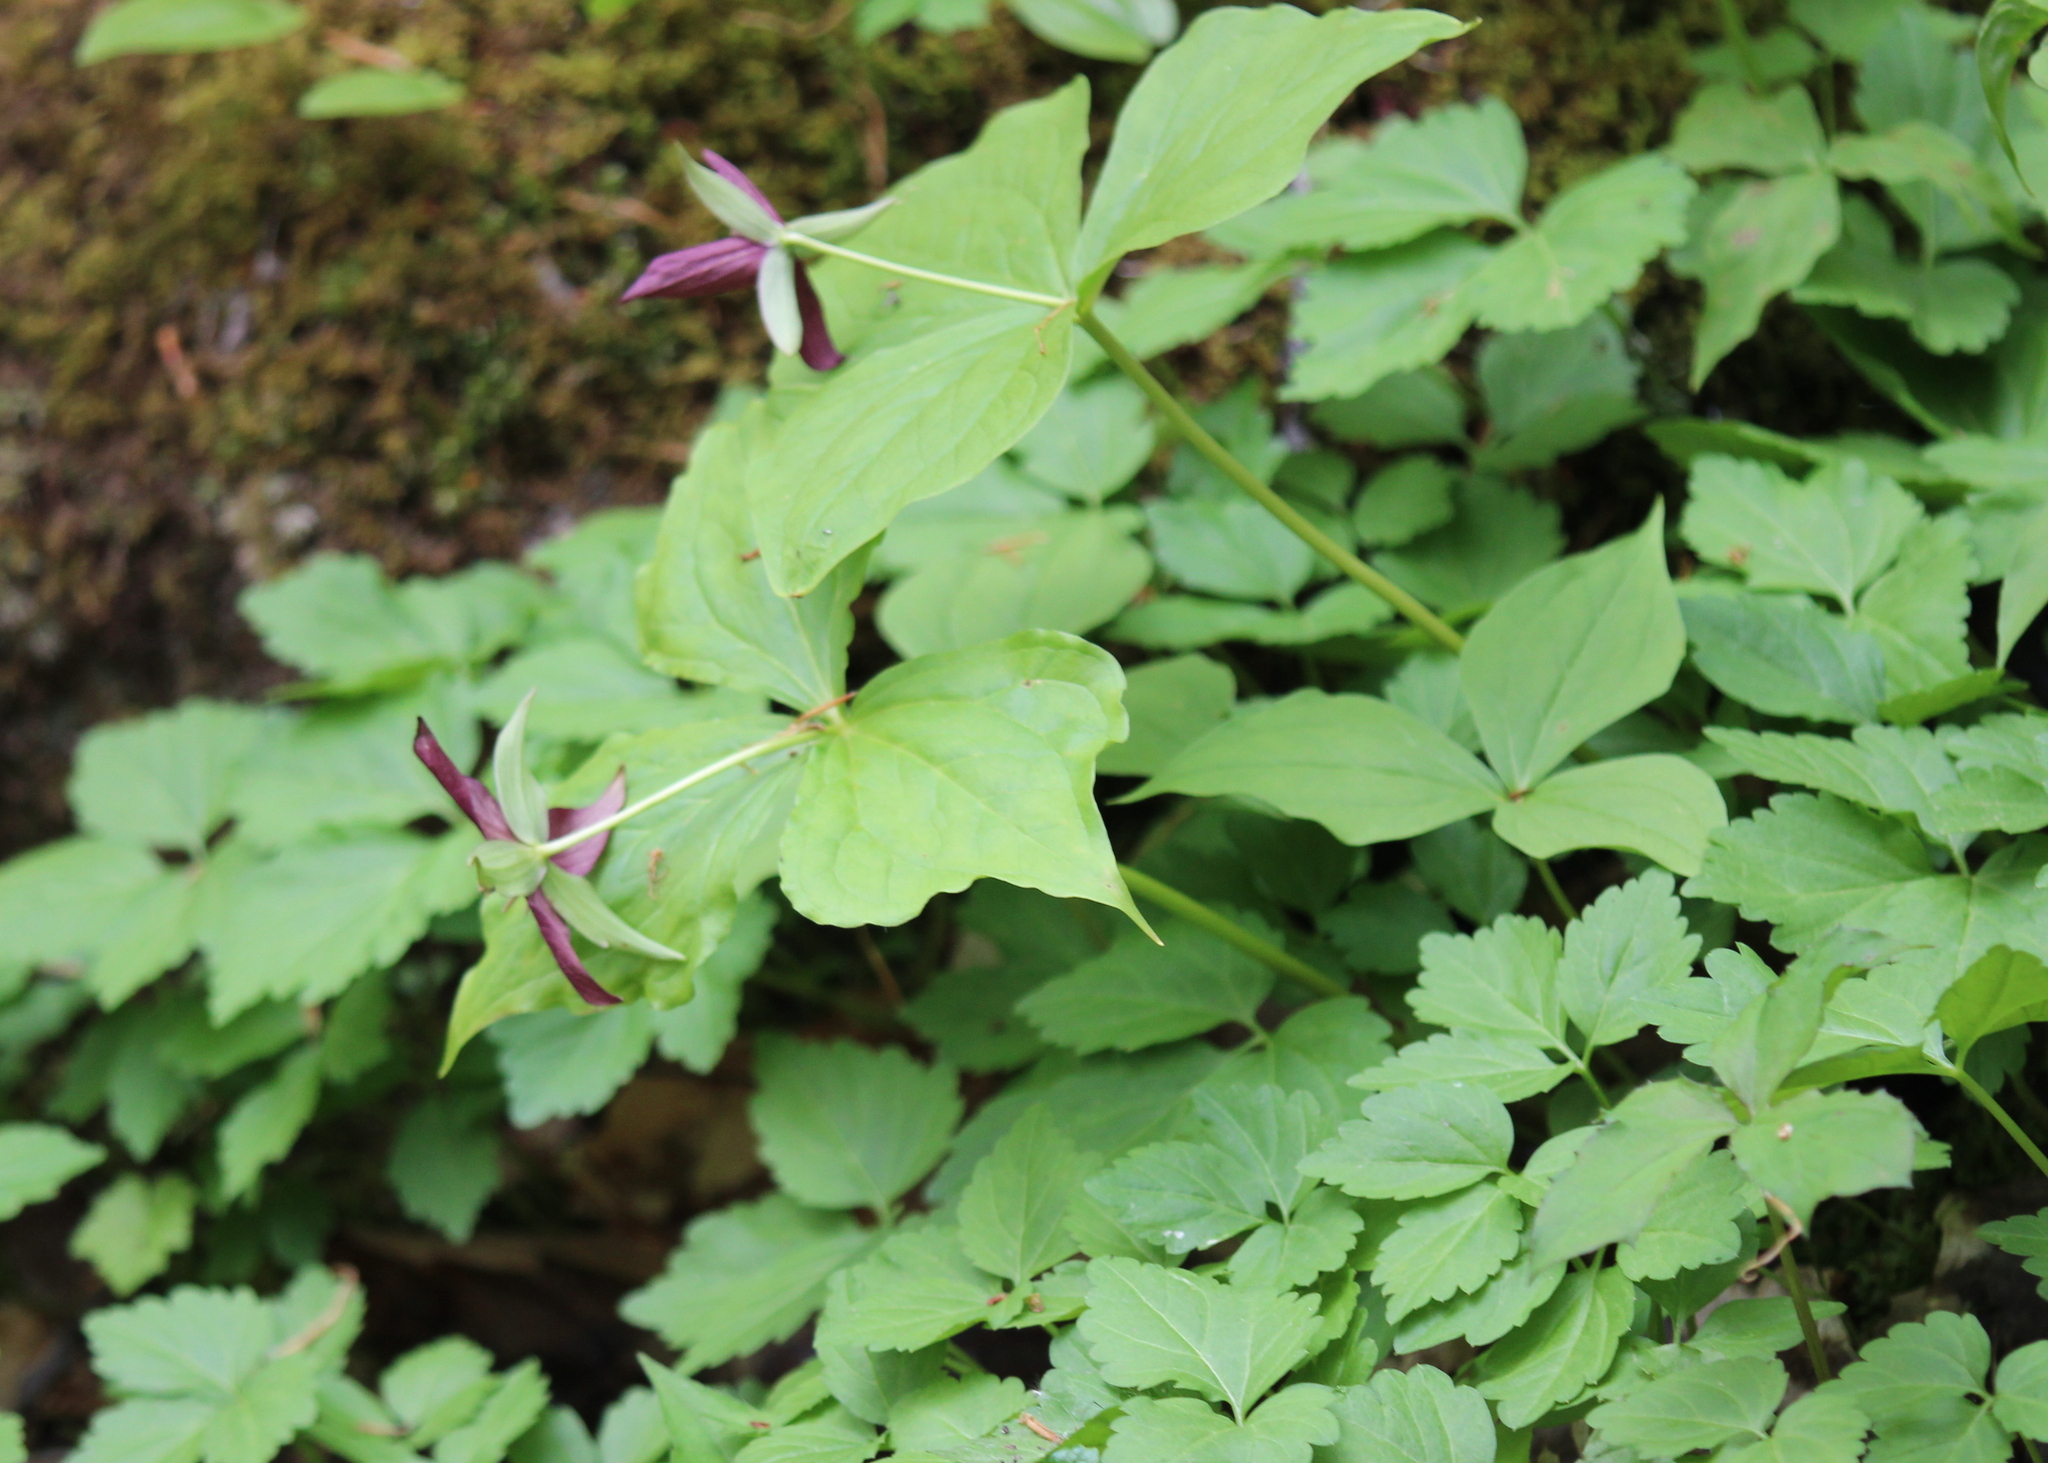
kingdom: Plantae
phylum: Tracheophyta
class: Liliopsida
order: Liliales
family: Melanthiaceae
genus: Trillium
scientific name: Trillium erectum
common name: Purple trillium
